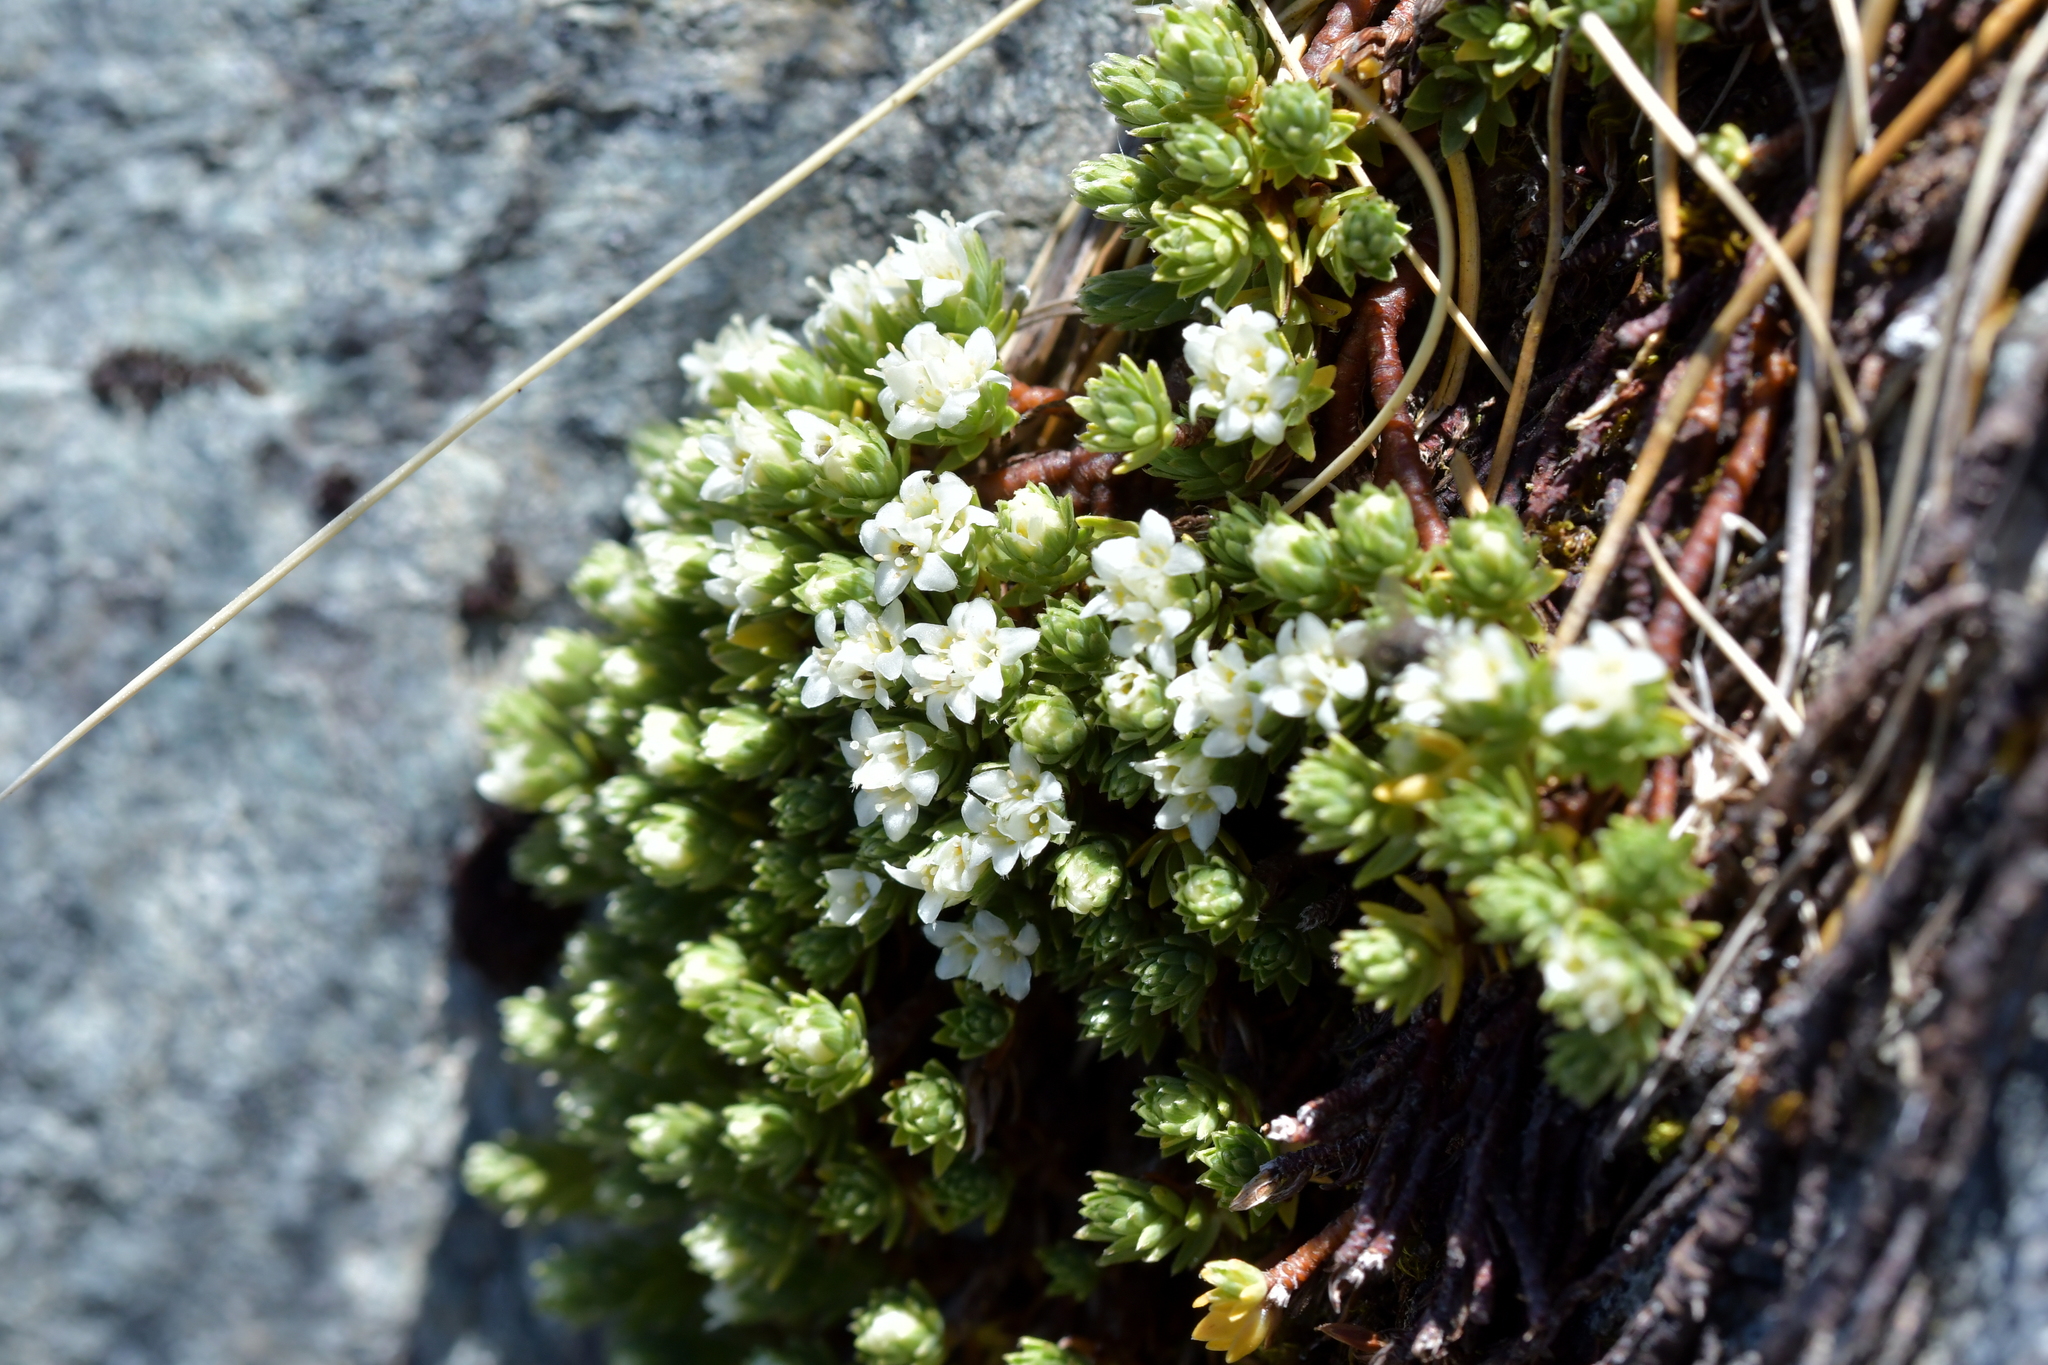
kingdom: Plantae
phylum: Tracheophyta
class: Magnoliopsida
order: Malvales
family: Thymelaeaceae
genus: Kelleria
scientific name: Kelleria croizatii
